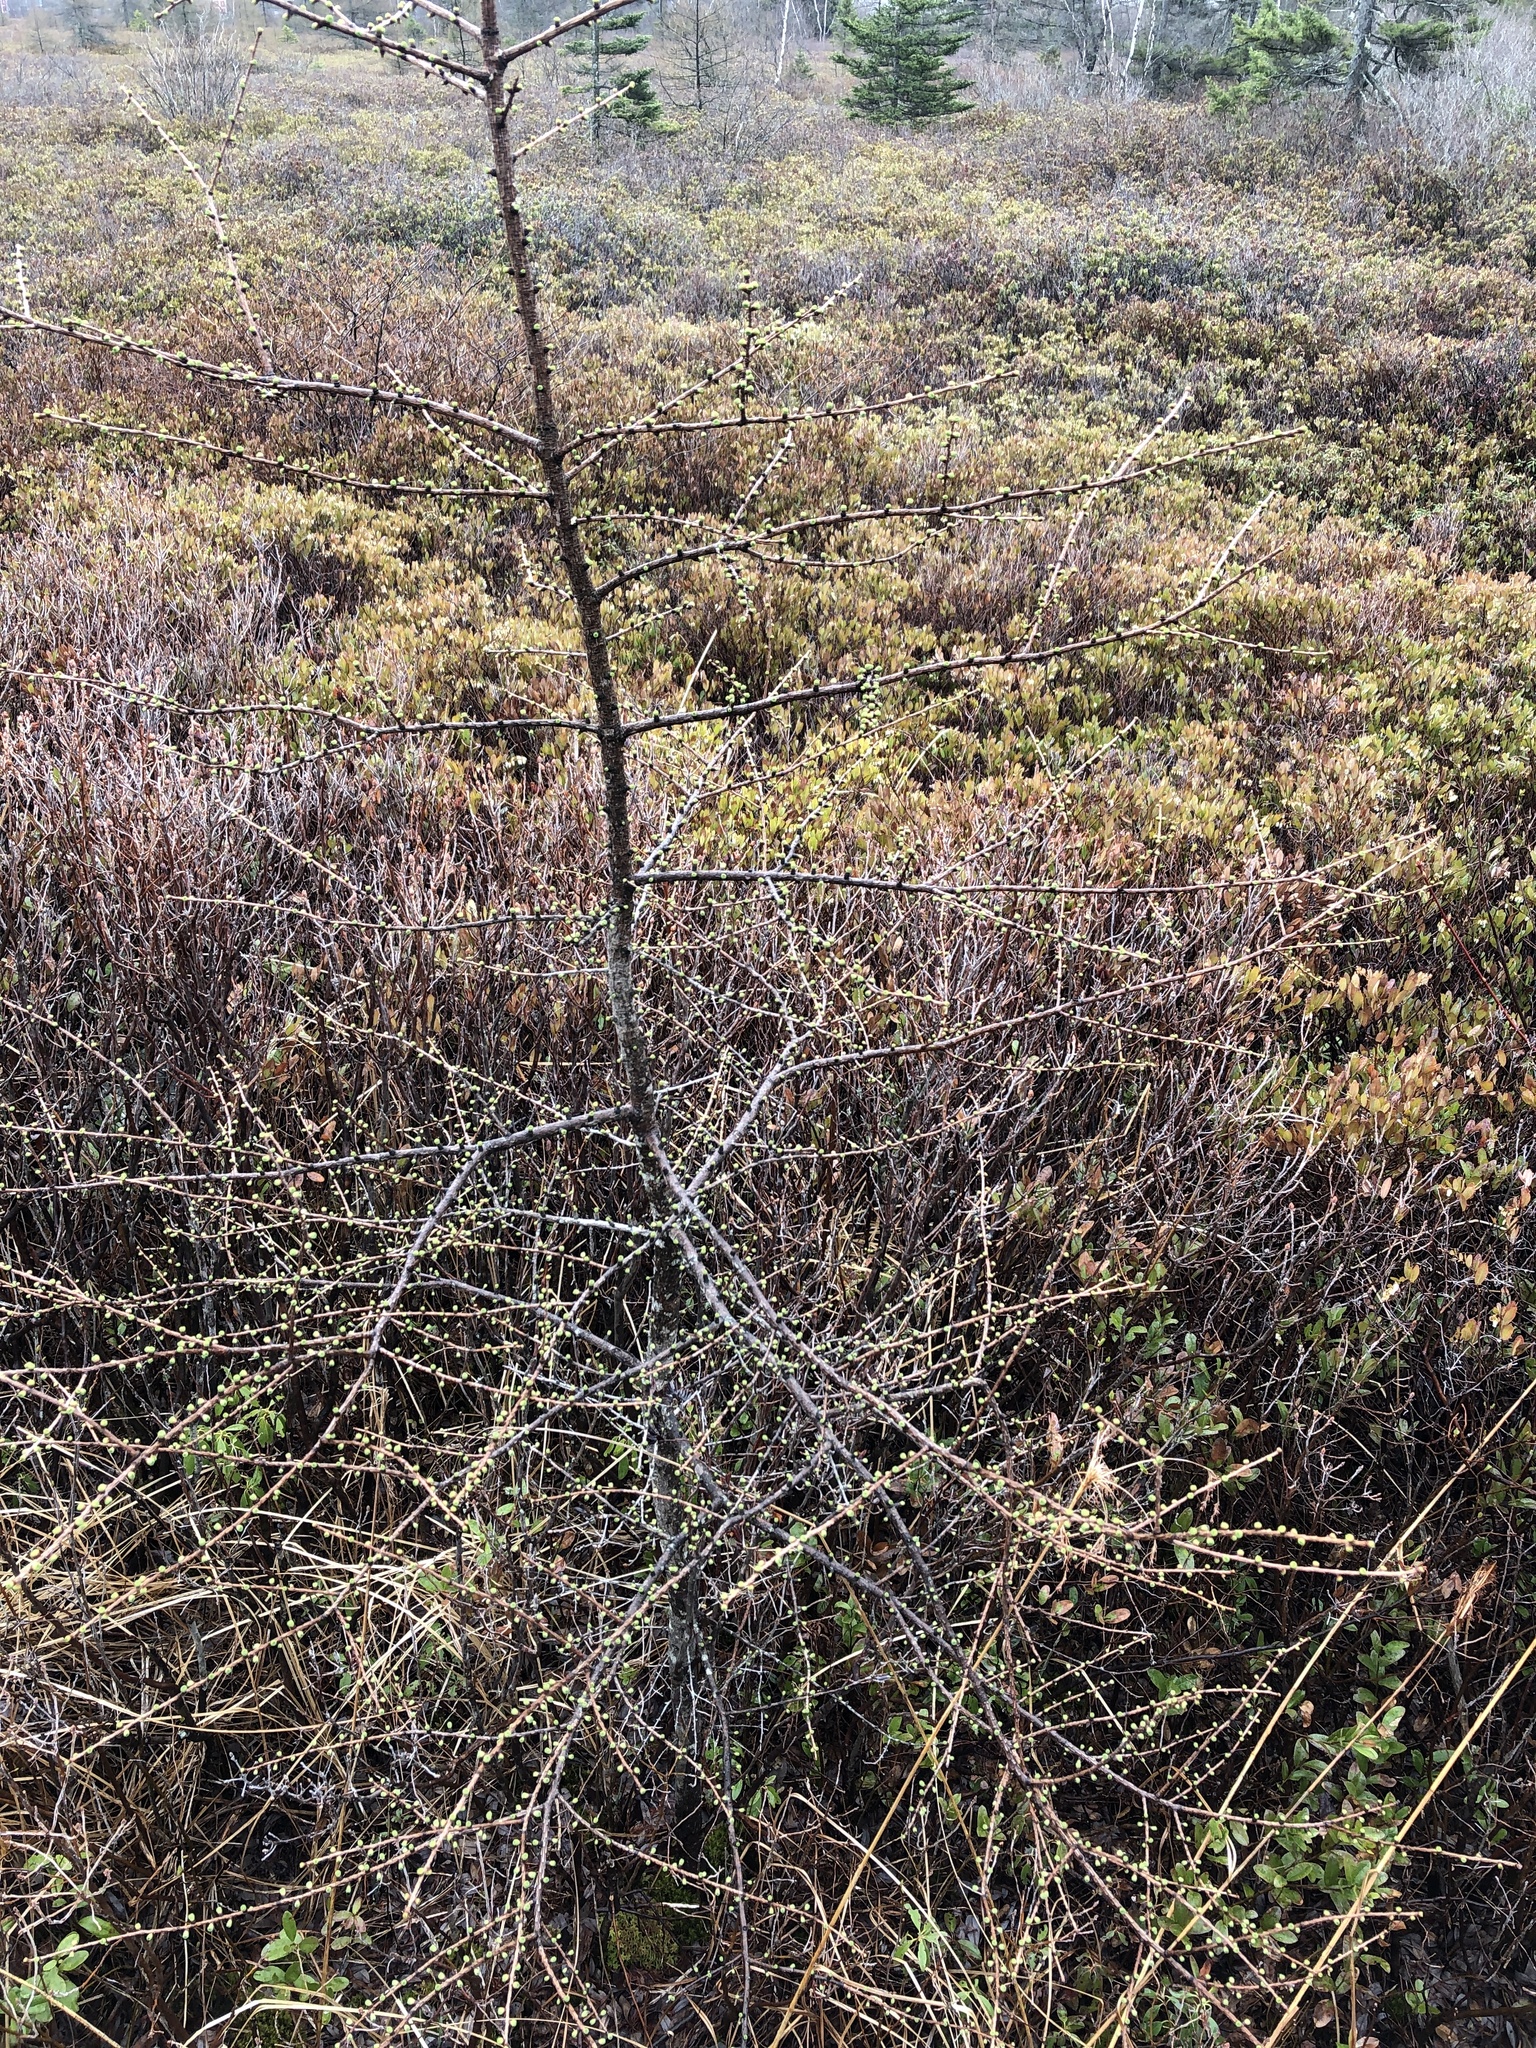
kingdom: Plantae
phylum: Tracheophyta
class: Pinopsida
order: Pinales
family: Pinaceae
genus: Larix
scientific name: Larix laricina
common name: American larch
